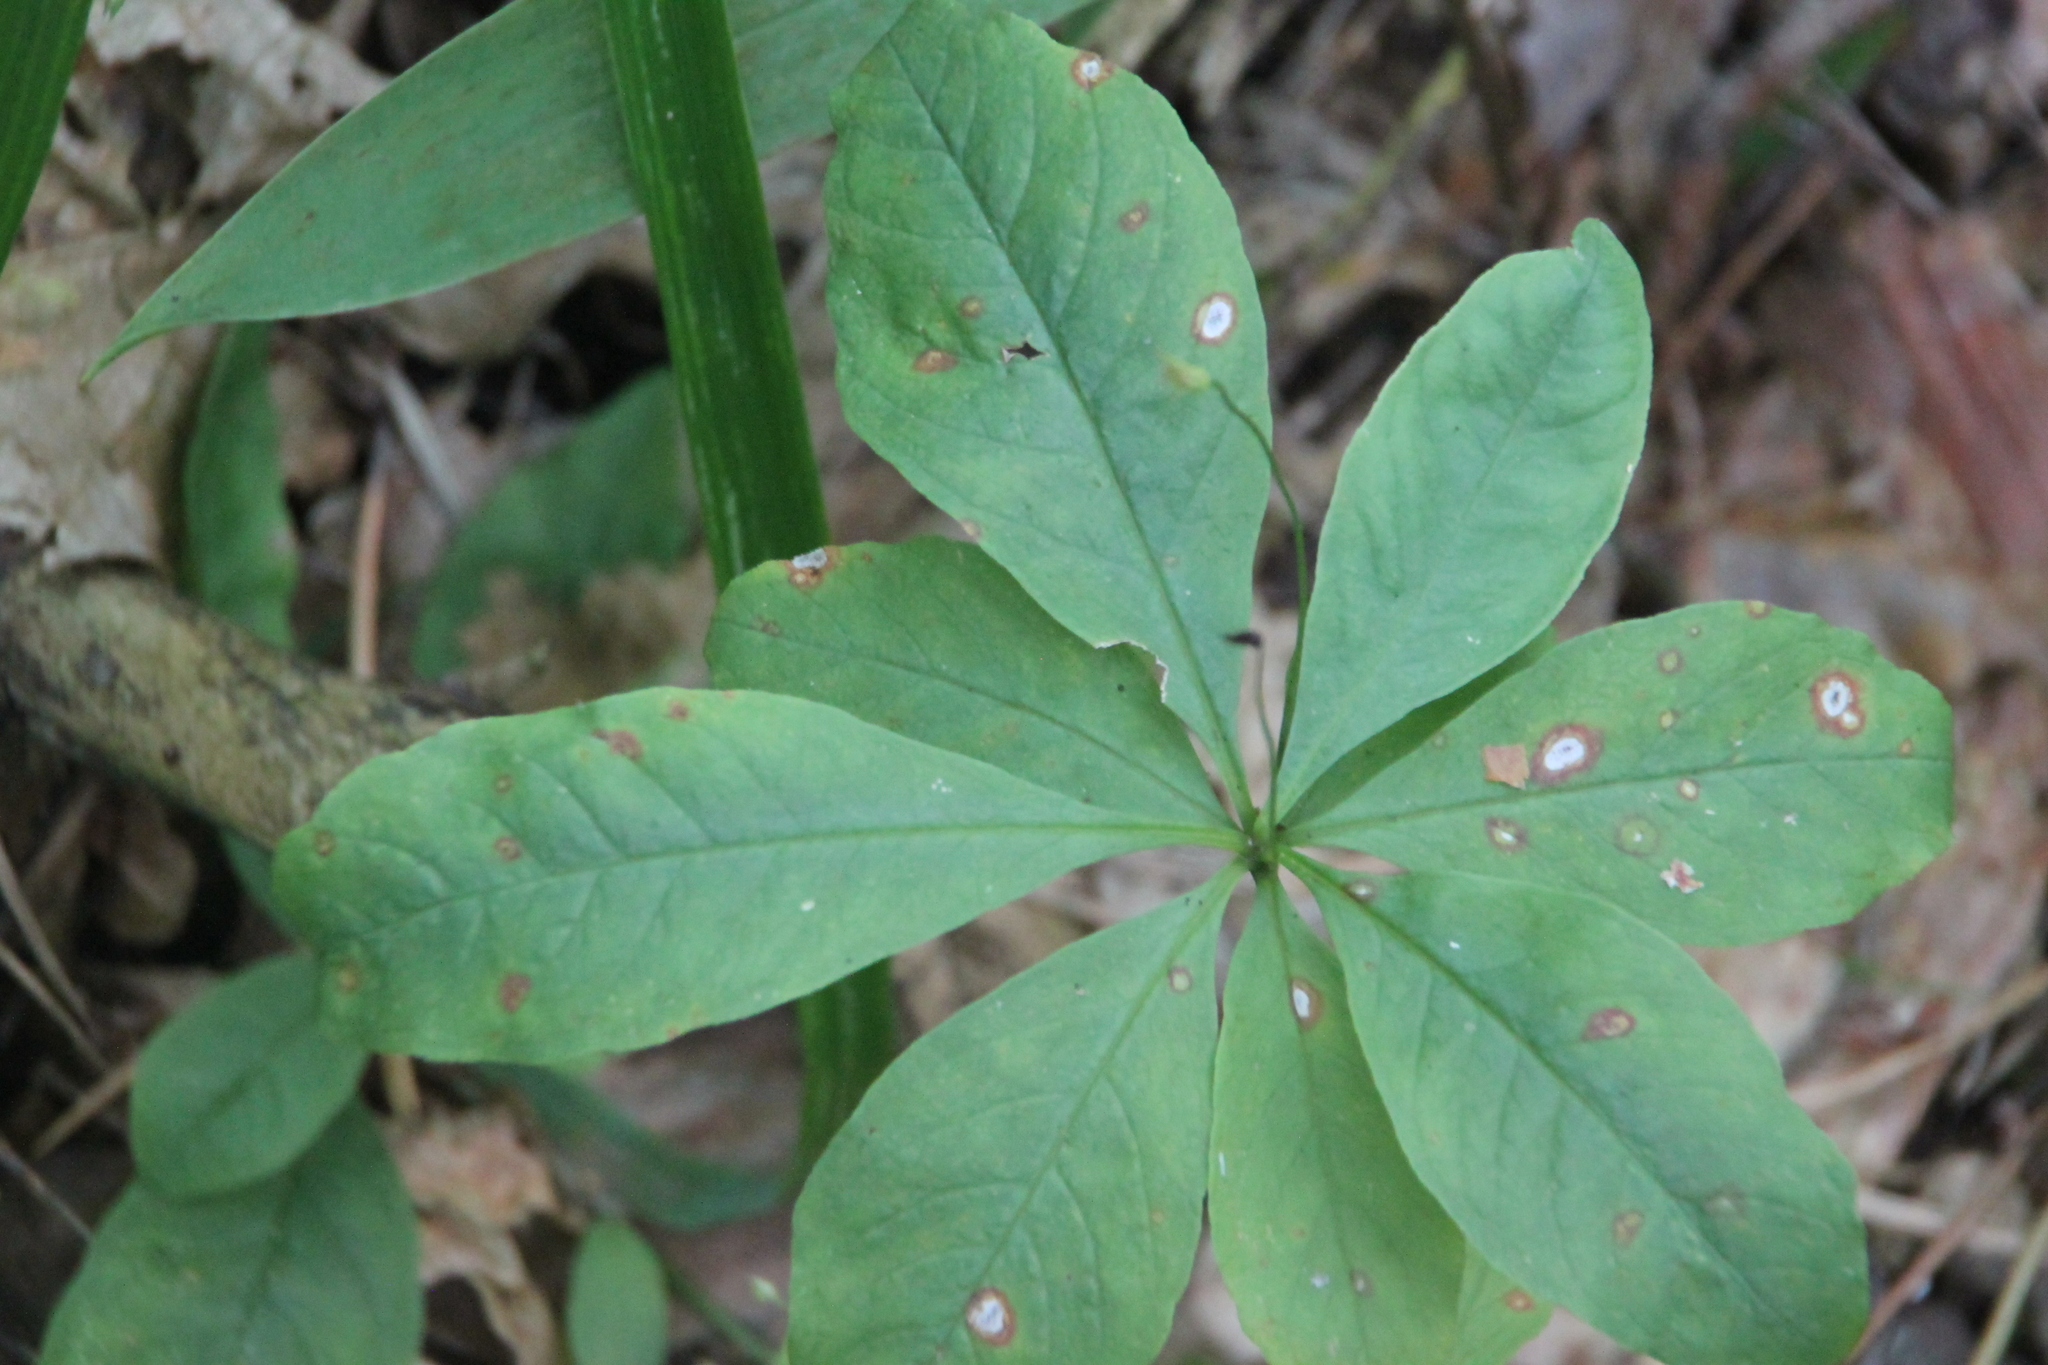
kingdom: Plantae
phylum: Tracheophyta
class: Magnoliopsida
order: Ericales
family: Primulaceae
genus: Lysimachia
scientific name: Lysimachia europaea
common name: Arctic starflower
